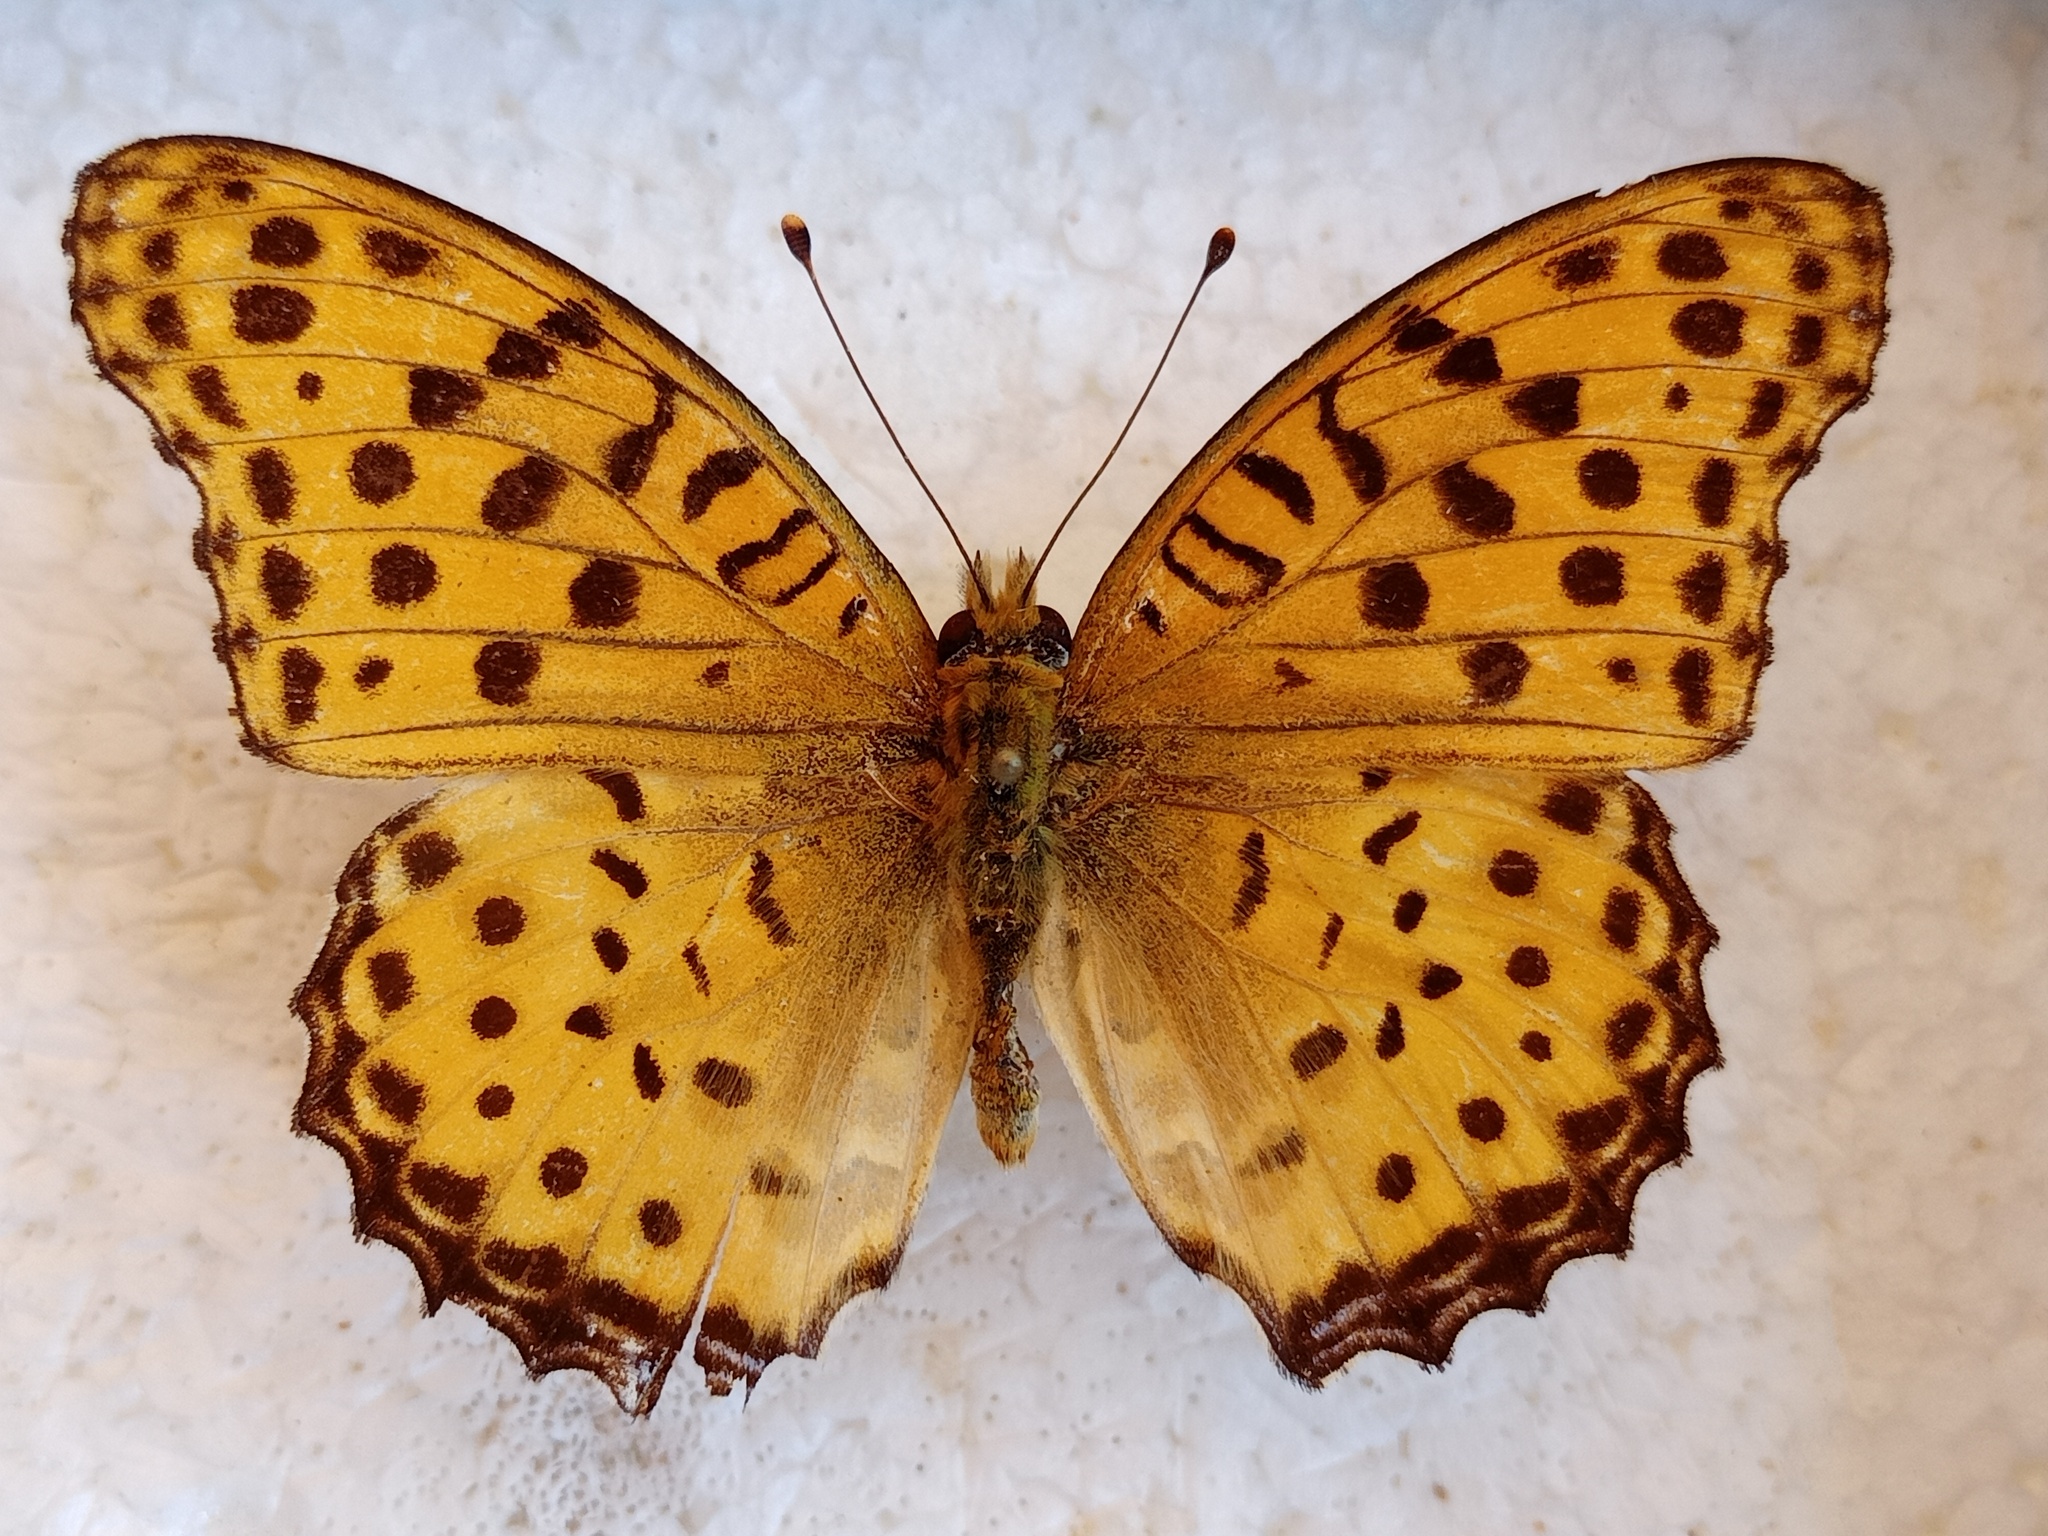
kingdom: Animalia
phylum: Arthropoda
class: Insecta
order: Lepidoptera
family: Nymphalidae
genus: Argynnis
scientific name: Argynnis hyperbius
